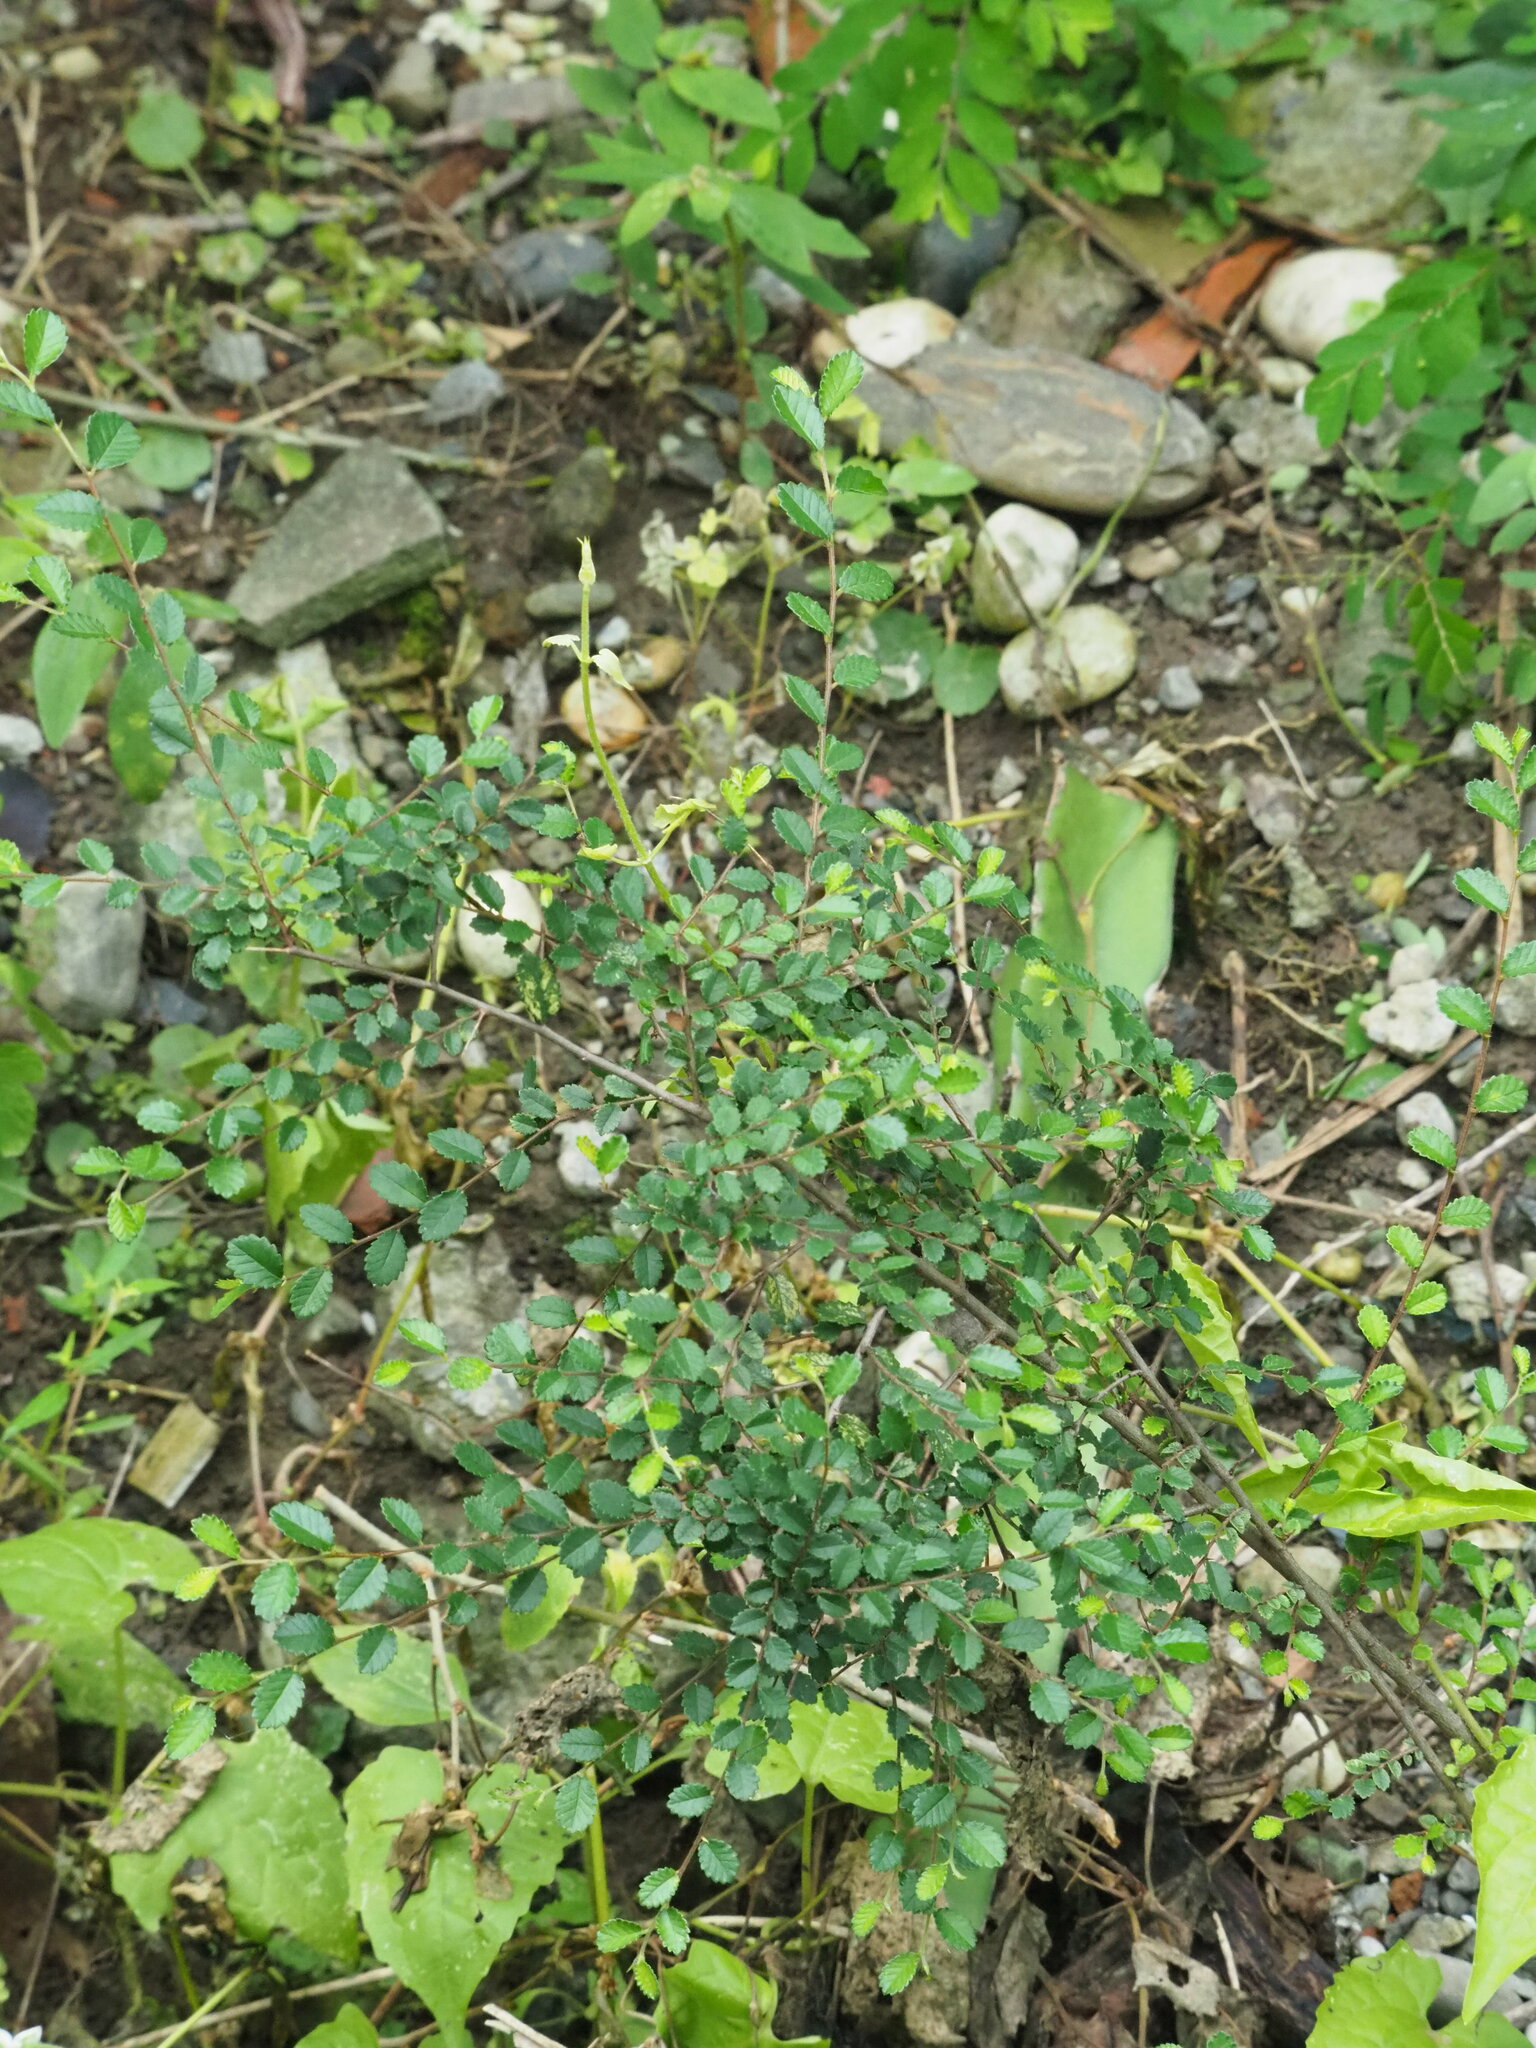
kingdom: Plantae
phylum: Tracheophyta
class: Magnoliopsida
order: Rosales
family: Ulmaceae
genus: Ulmus
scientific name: Ulmus parvifolia
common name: Chinese elm
